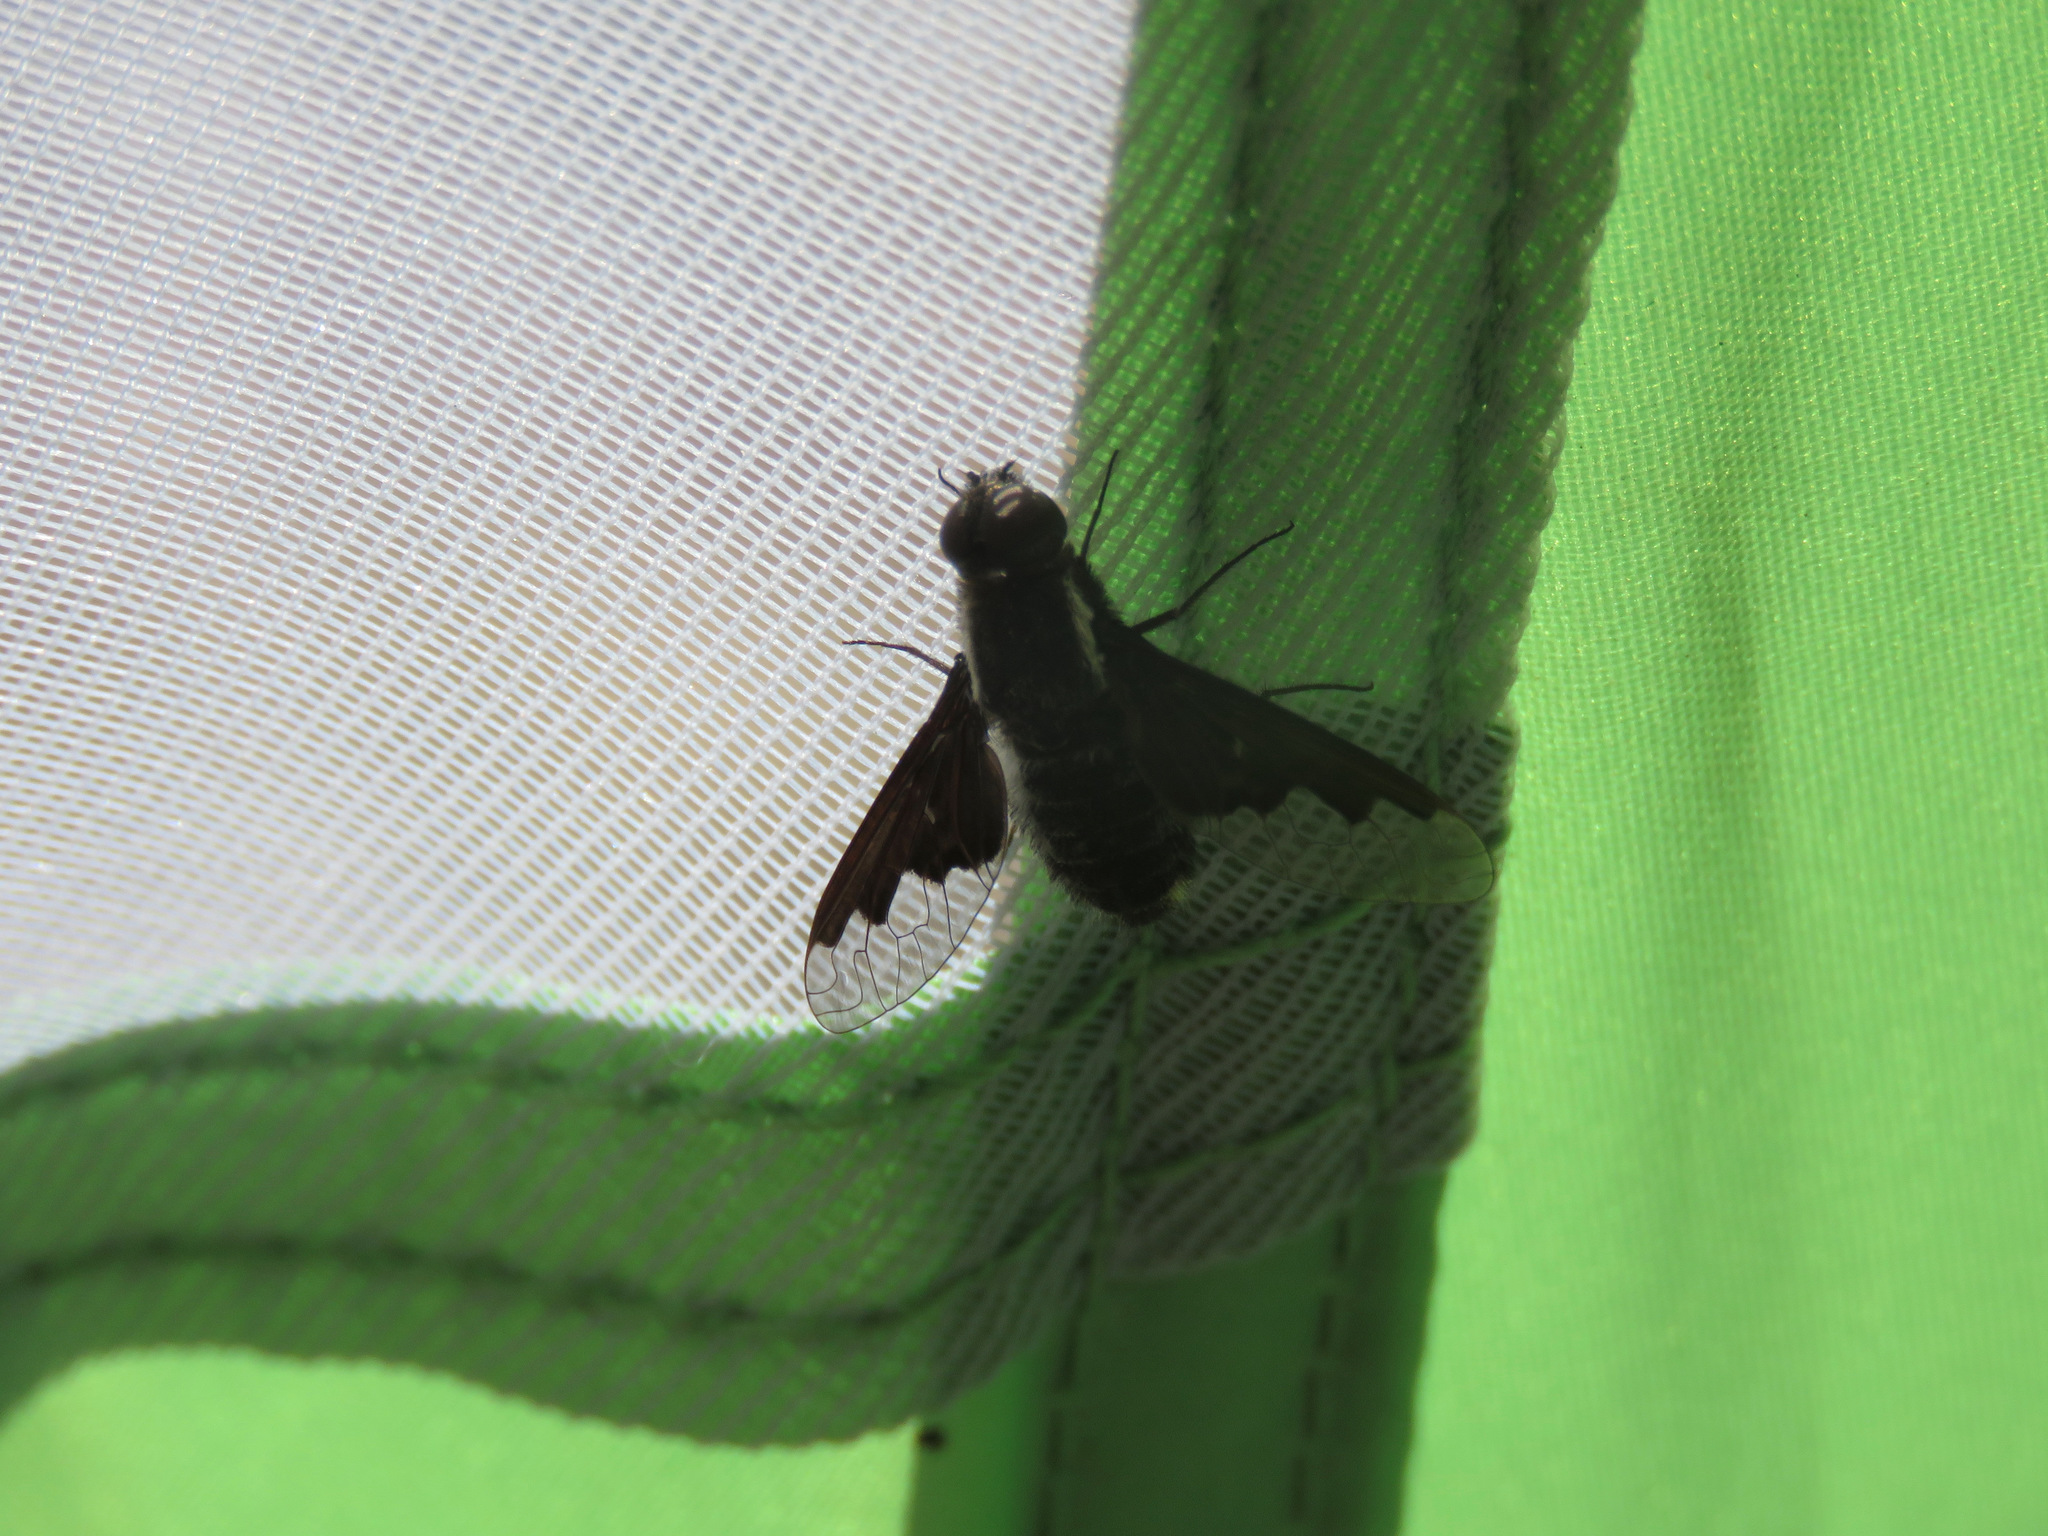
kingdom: Animalia
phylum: Arthropoda
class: Insecta
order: Diptera
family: Bombyliidae
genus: Hemipenthes
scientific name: Hemipenthes morioides
